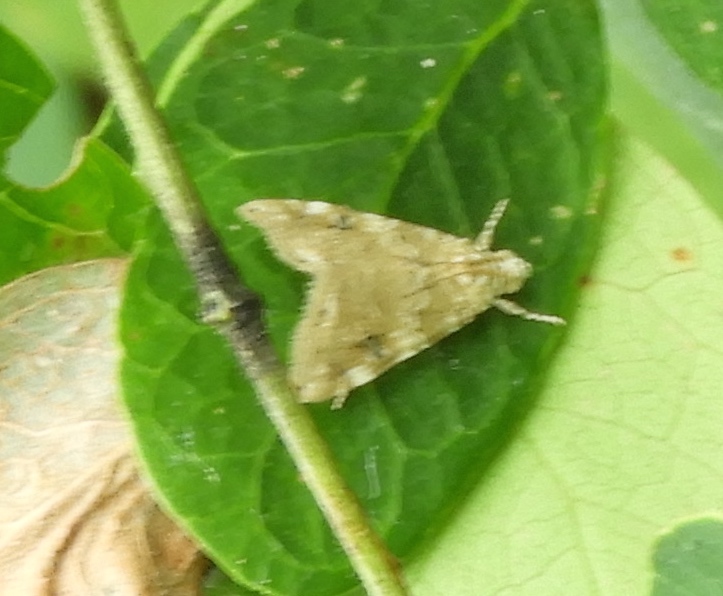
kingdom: Animalia
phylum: Arthropoda
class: Insecta
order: Lepidoptera
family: Crambidae
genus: Hellula
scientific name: Hellula
